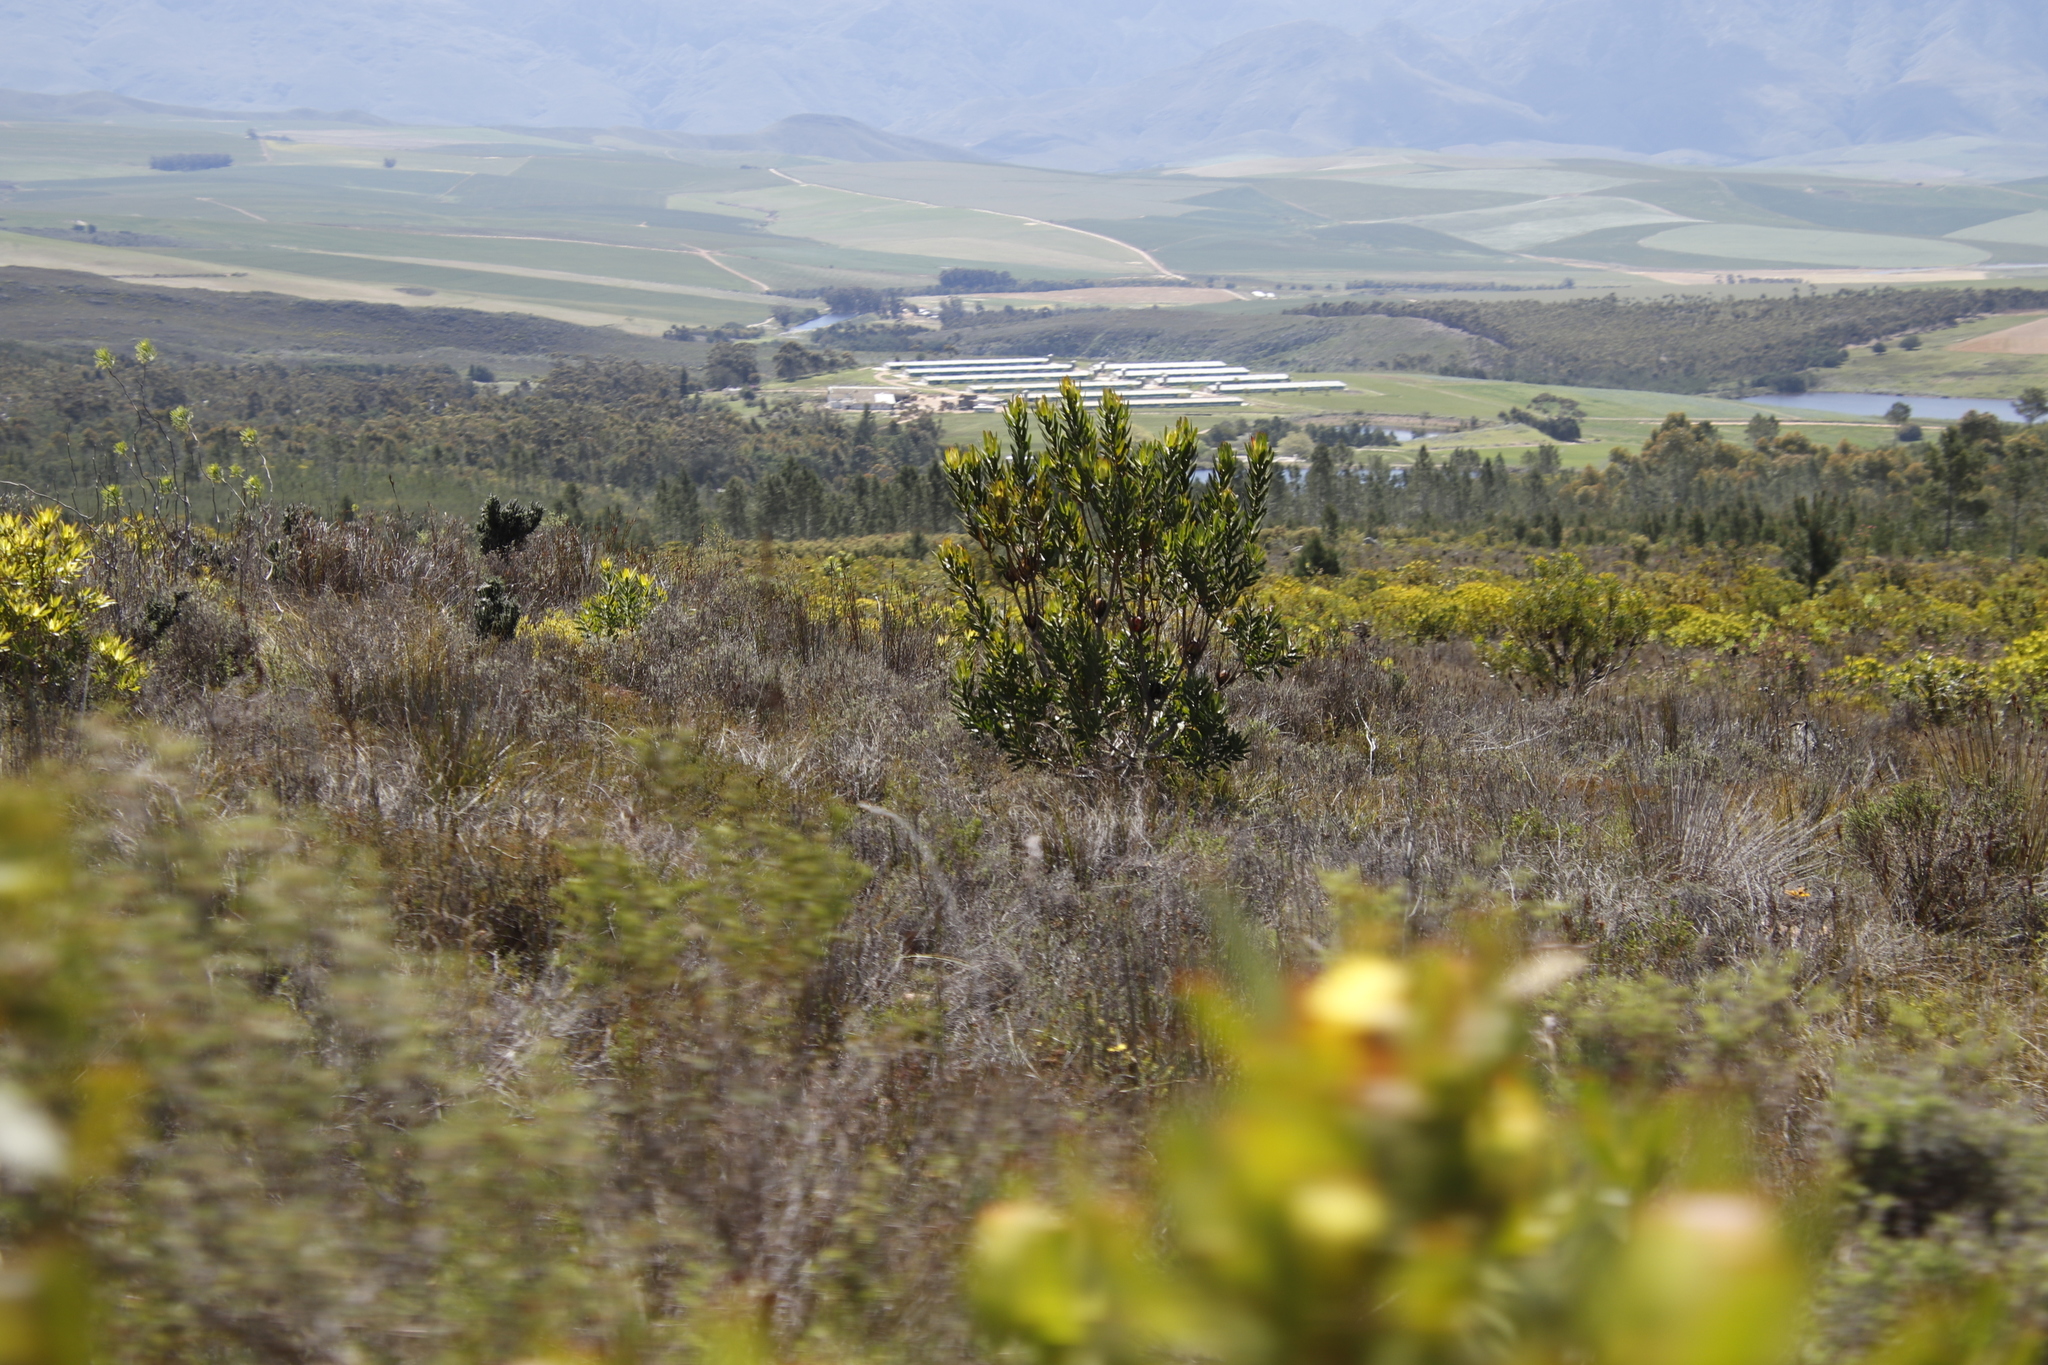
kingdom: Plantae
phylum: Tracheophyta
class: Magnoliopsida
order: Proteales
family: Proteaceae
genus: Leucadendron
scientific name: Leucadendron laureolum
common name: Golden sunshinebush
